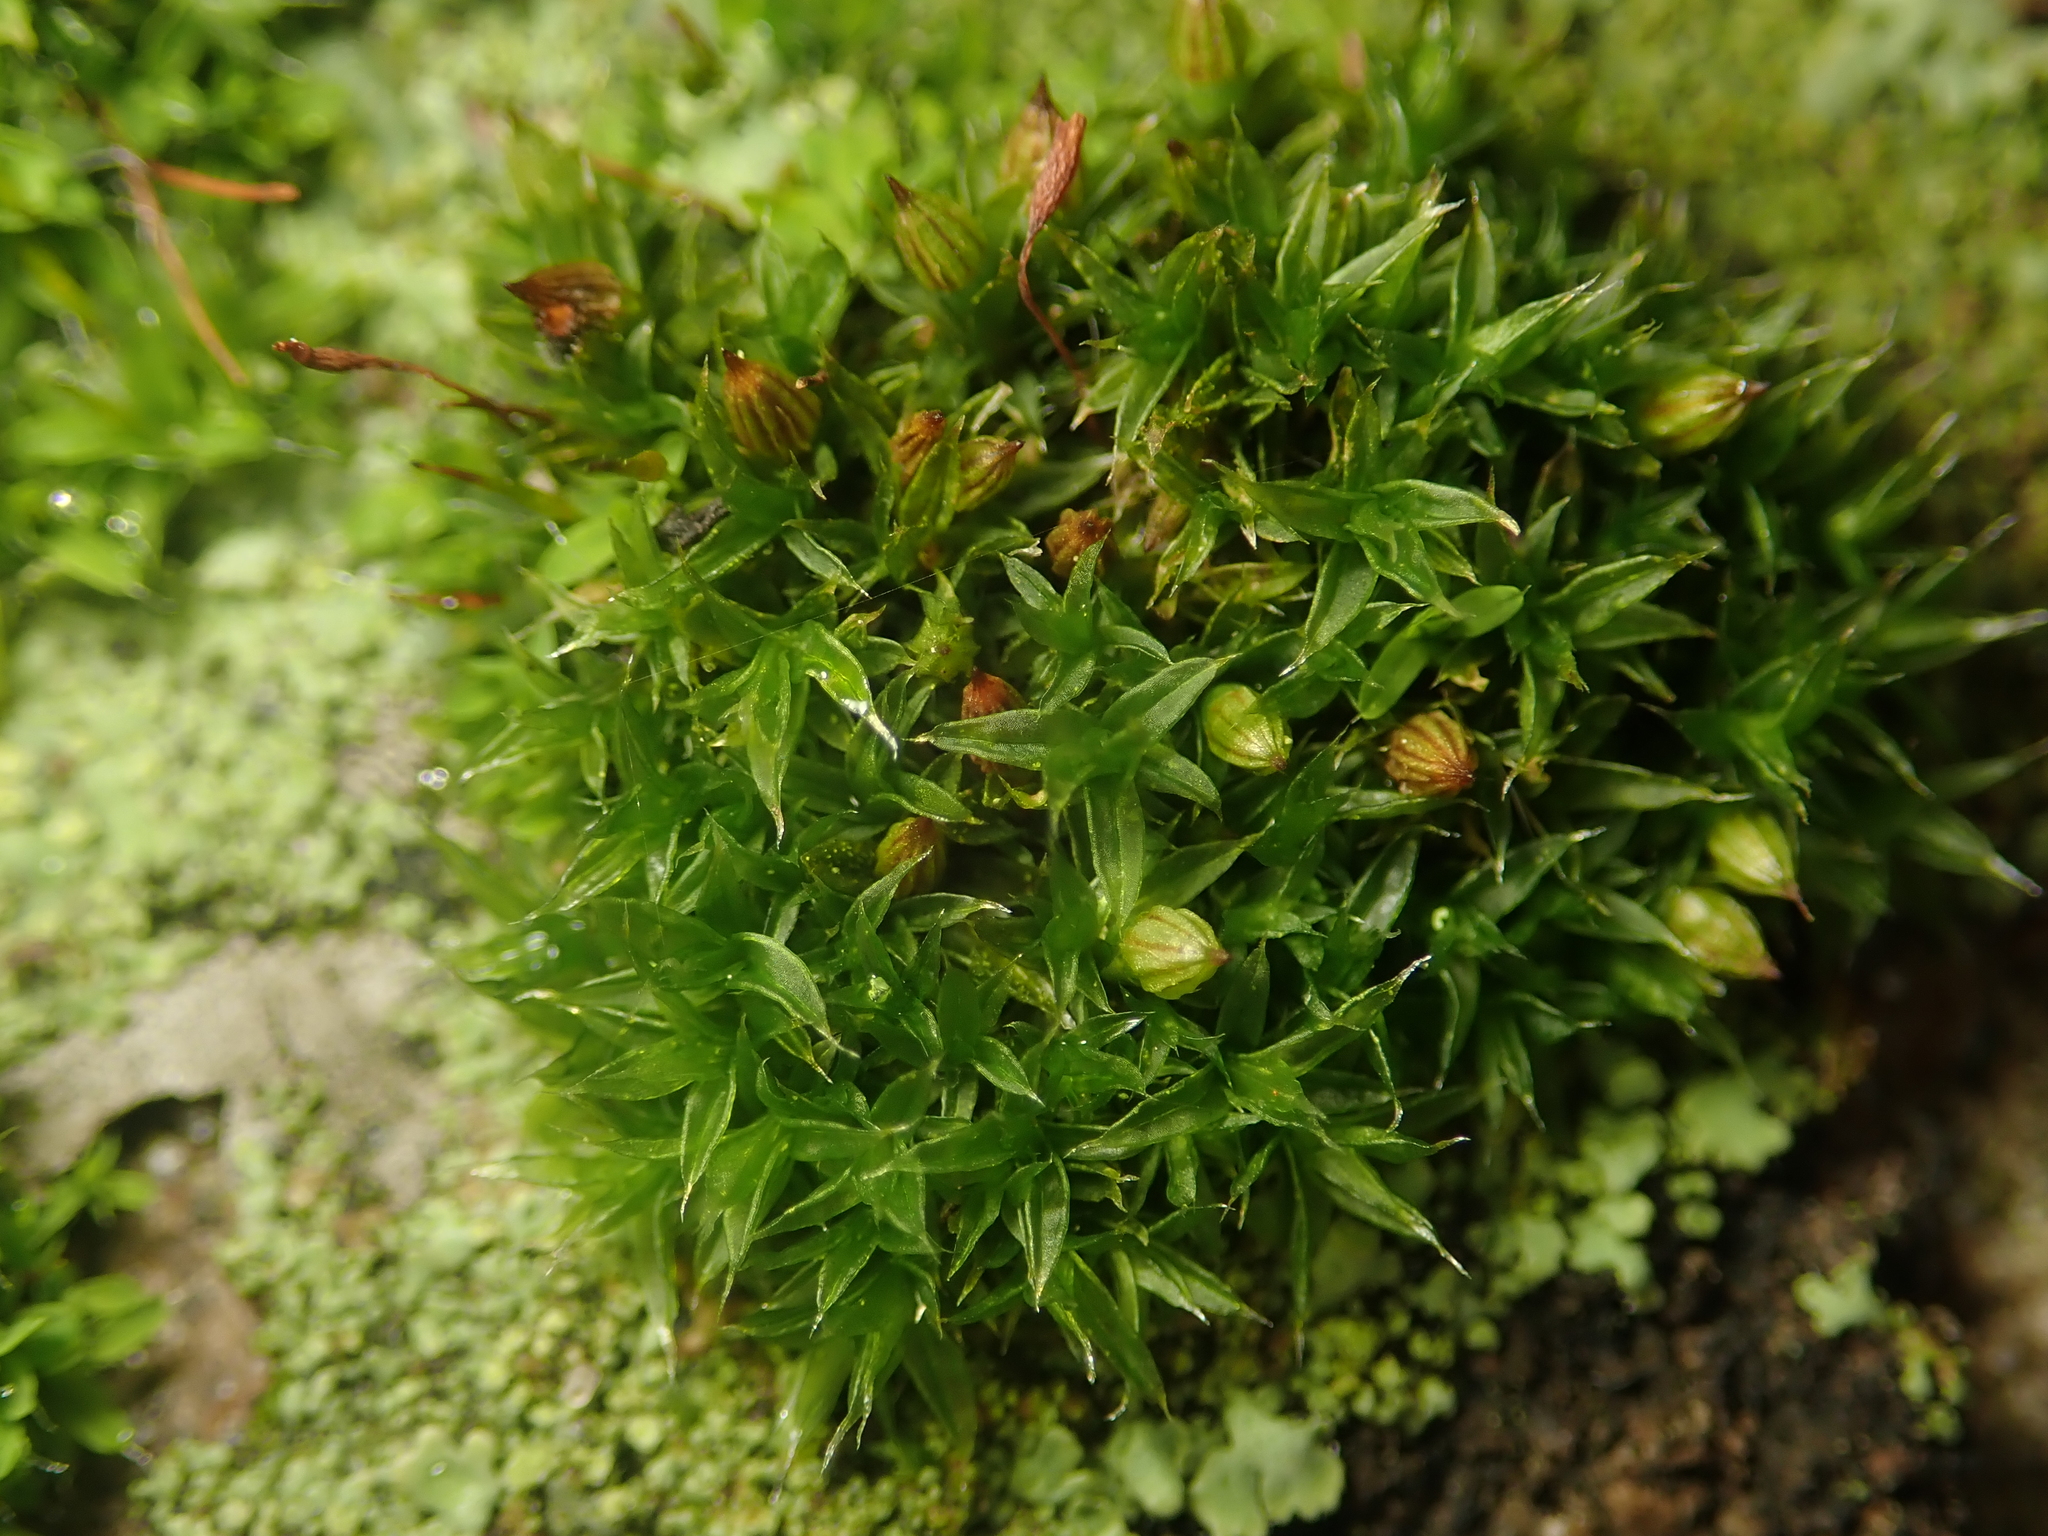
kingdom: Plantae
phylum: Bryophyta
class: Bryopsida
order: Orthotrichales
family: Orthotrichaceae
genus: Orthotrichum
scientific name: Orthotrichum diaphanum
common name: White-tipped bristle-moss
